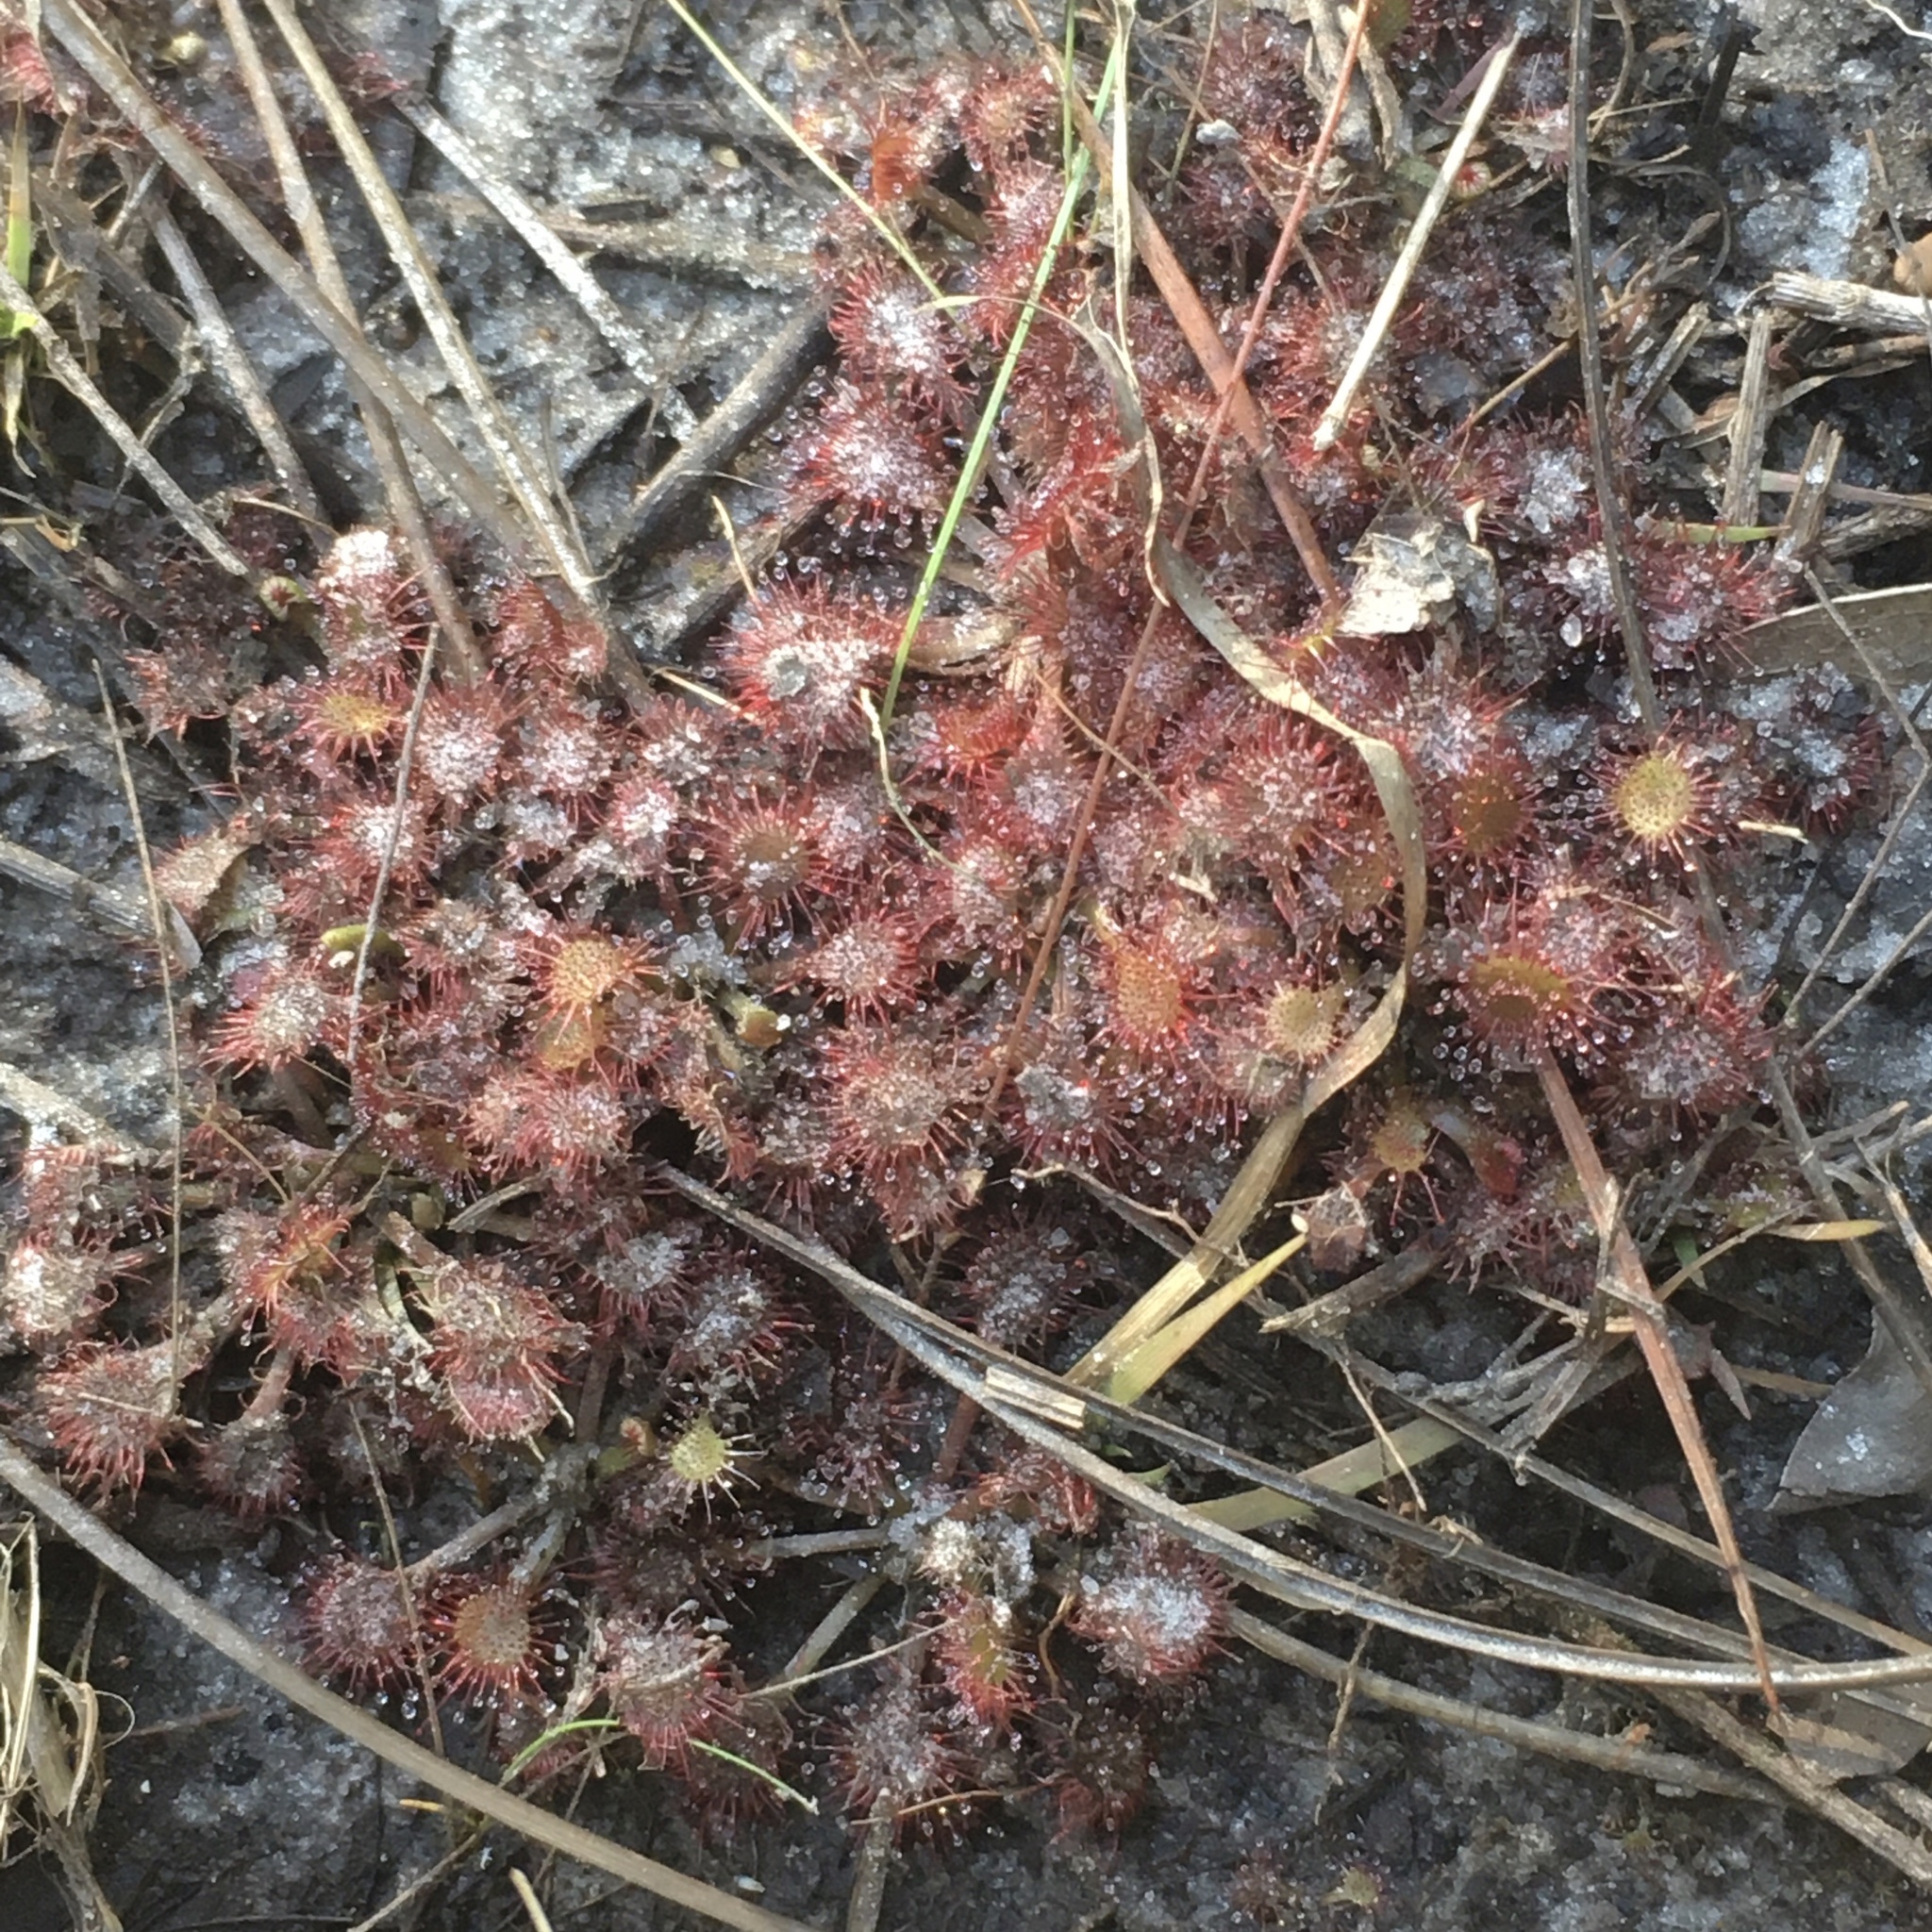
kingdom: Plantae
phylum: Tracheophyta
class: Magnoliopsida
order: Caryophyllales
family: Droseraceae
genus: Drosera
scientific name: Drosera capillaris
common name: Pink sundew
